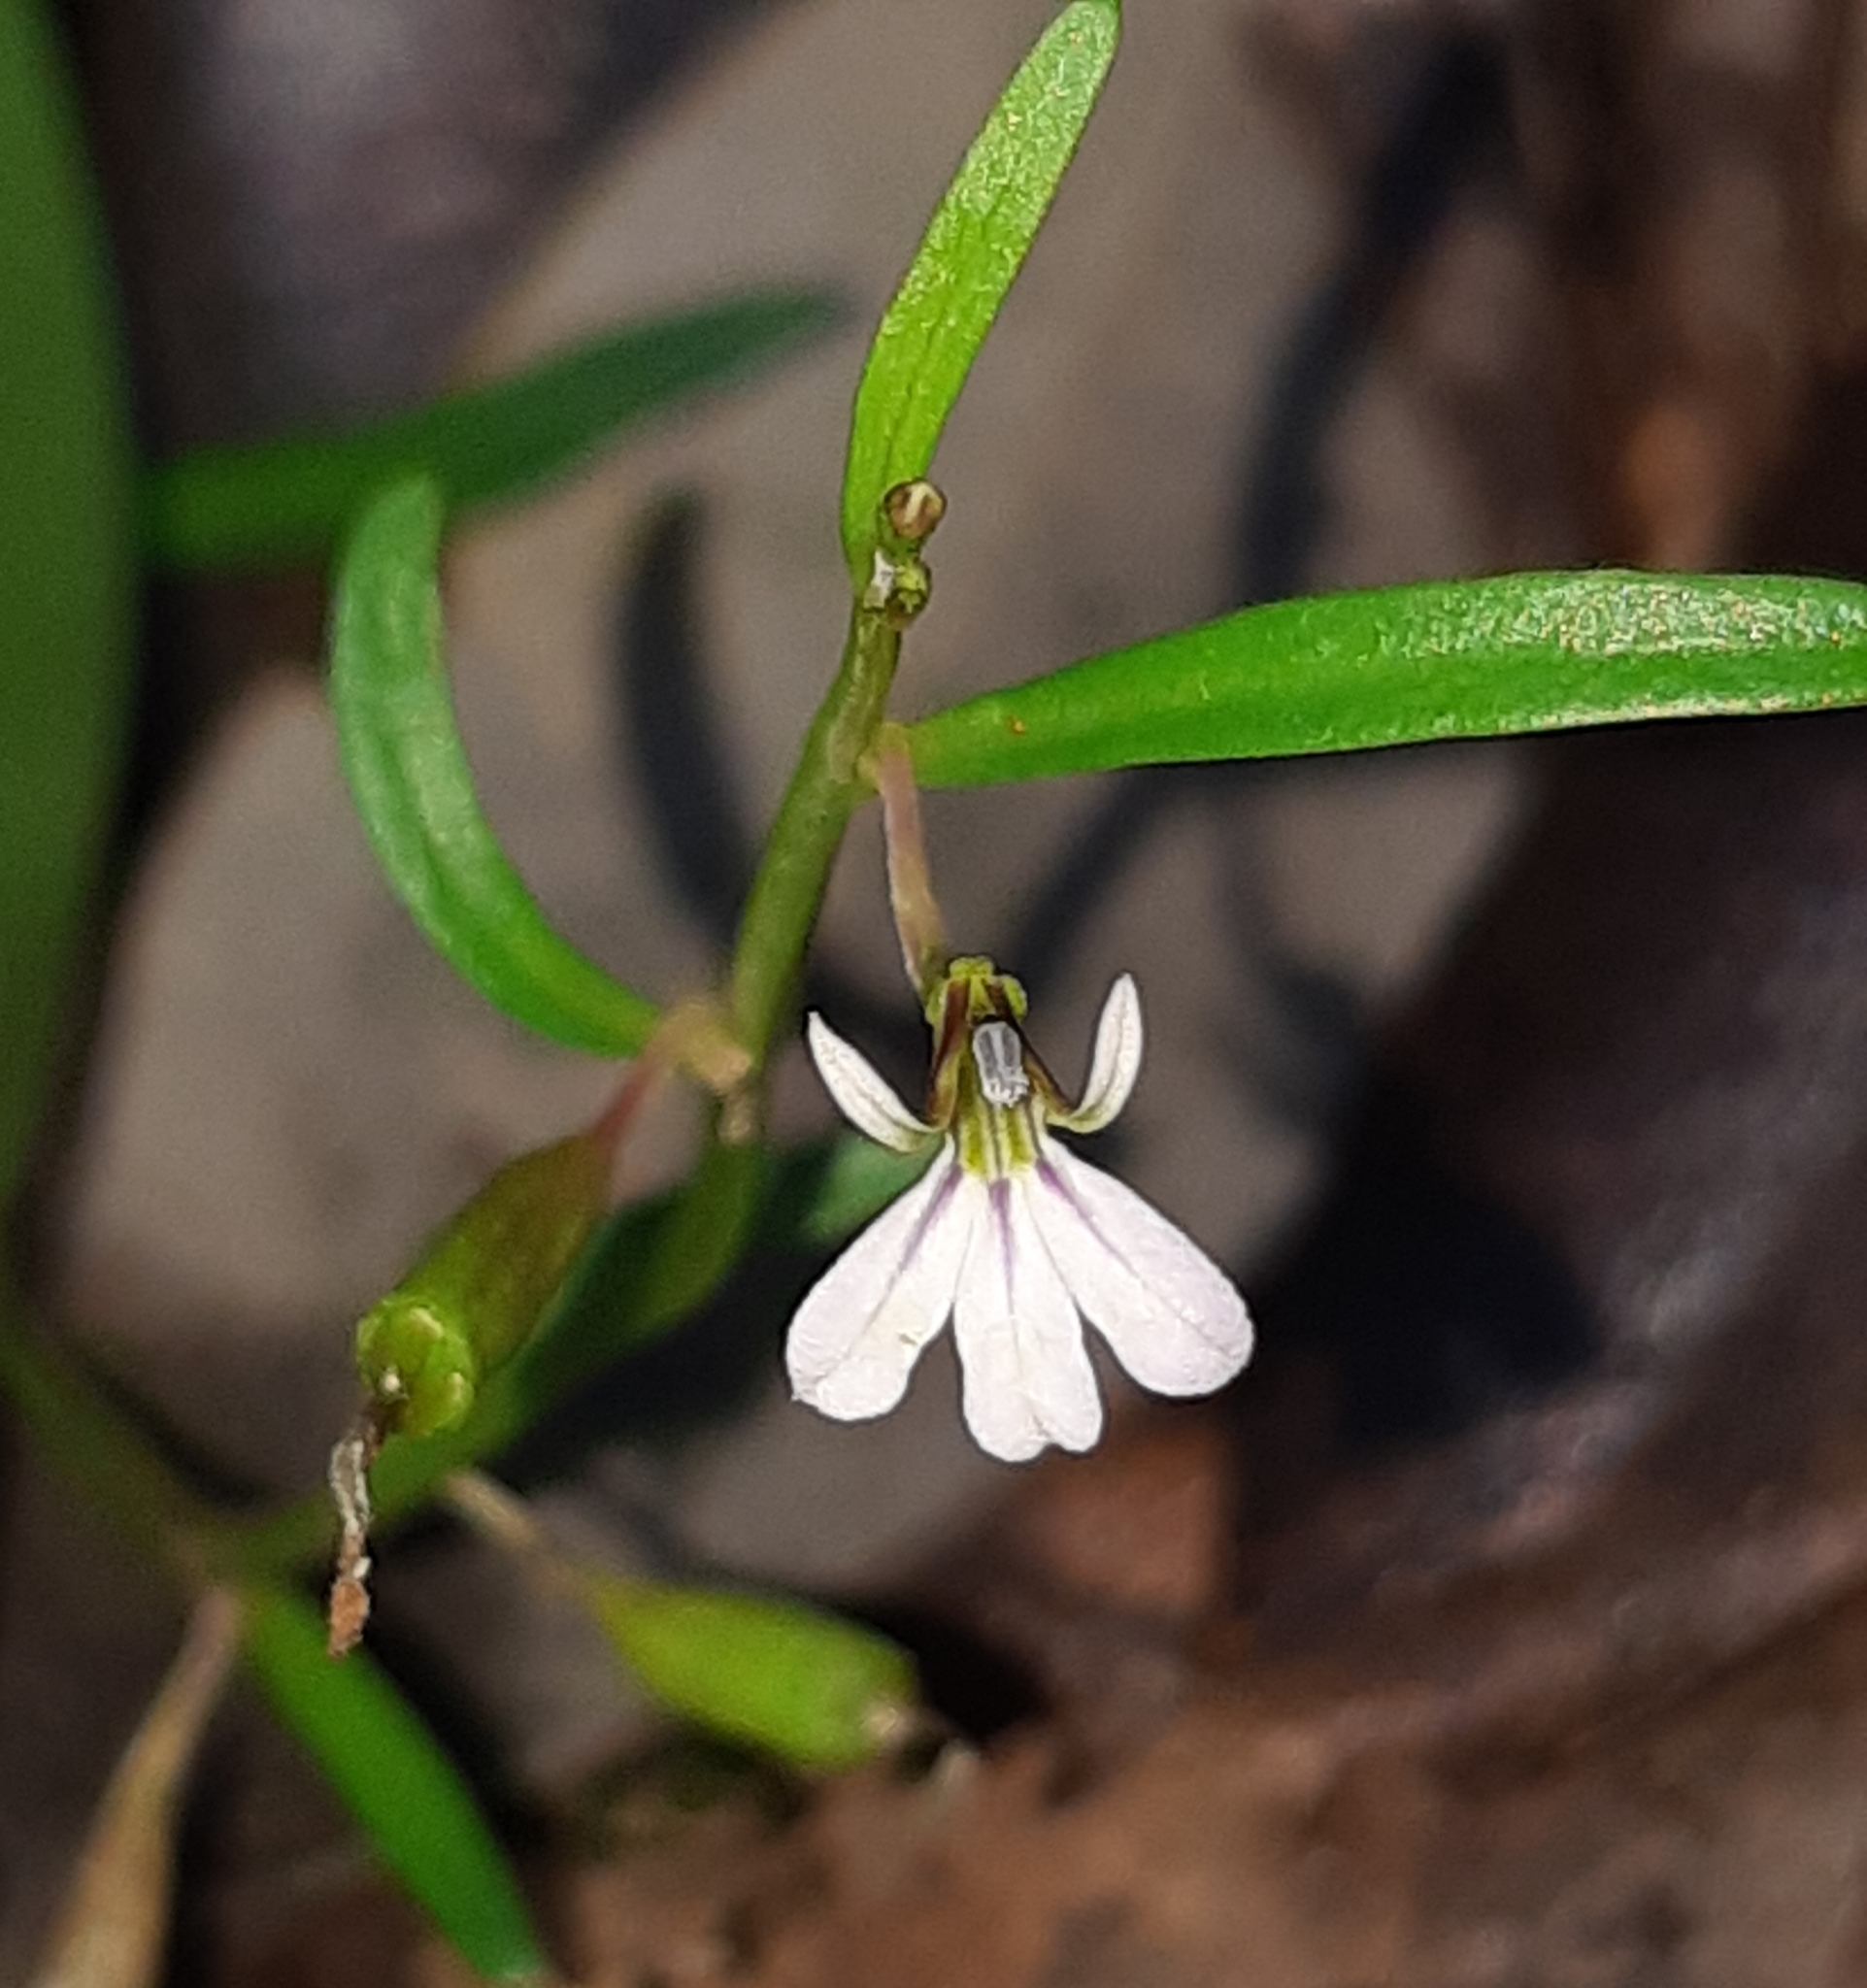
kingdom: Plantae
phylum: Tracheophyta
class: Magnoliopsida
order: Asterales
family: Campanulaceae
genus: Lobelia
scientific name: Lobelia anceps
